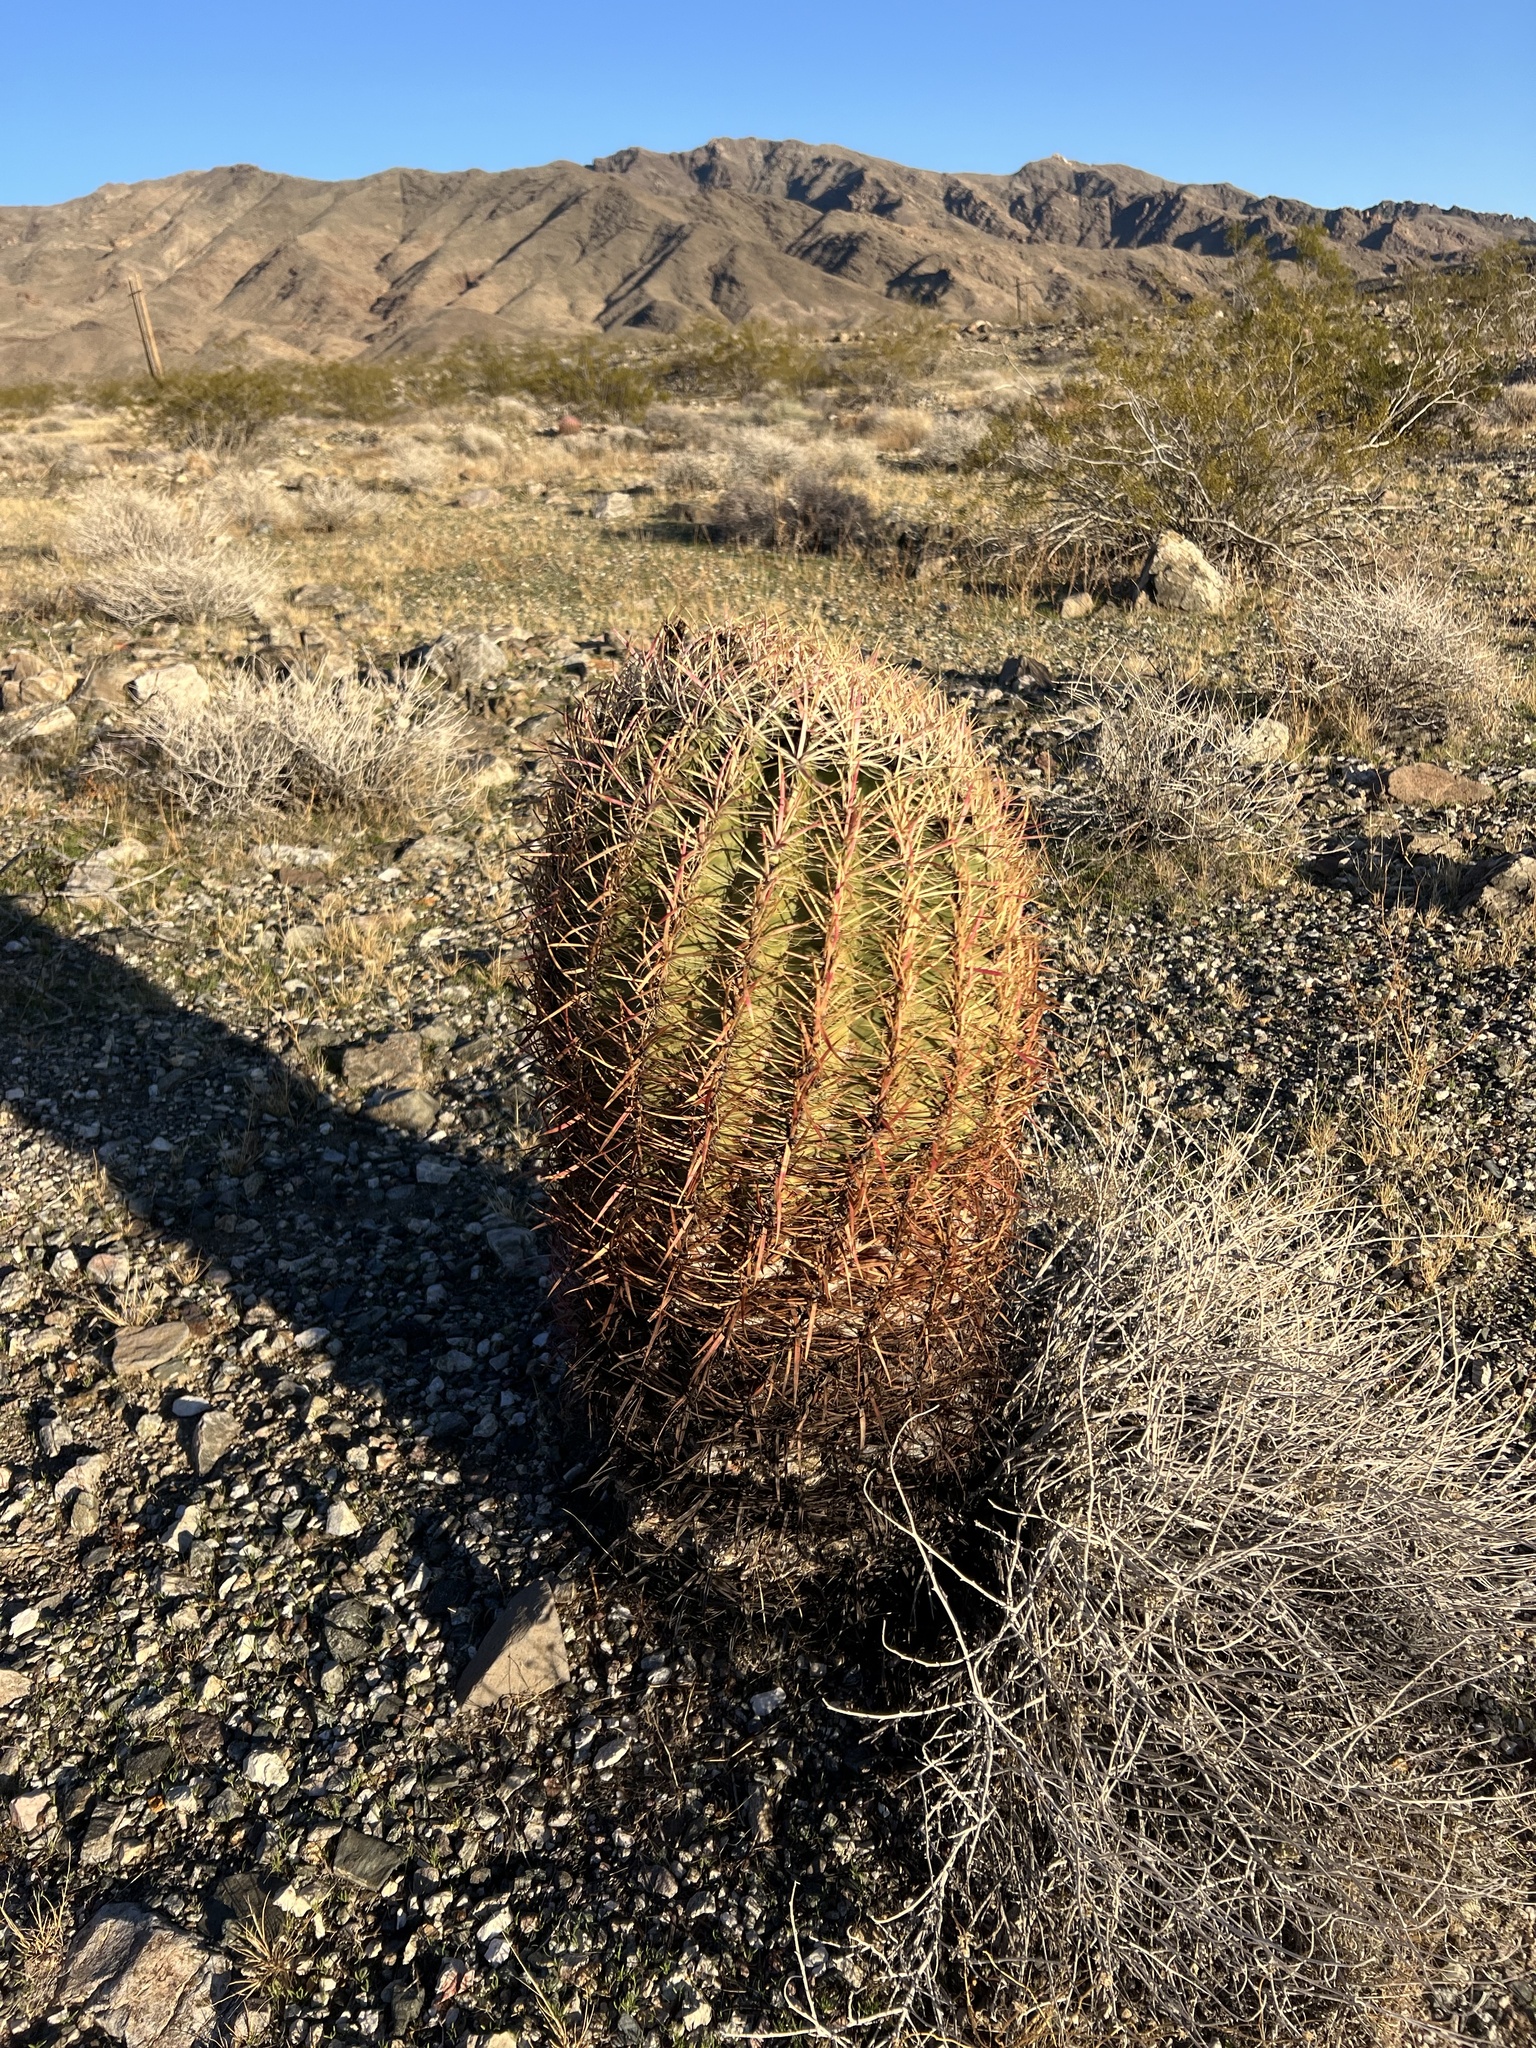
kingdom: Plantae
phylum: Tracheophyta
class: Magnoliopsida
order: Caryophyllales
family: Cactaceae
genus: Ferocactus
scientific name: Ferocactus cylindraceus
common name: California barrel cactus
